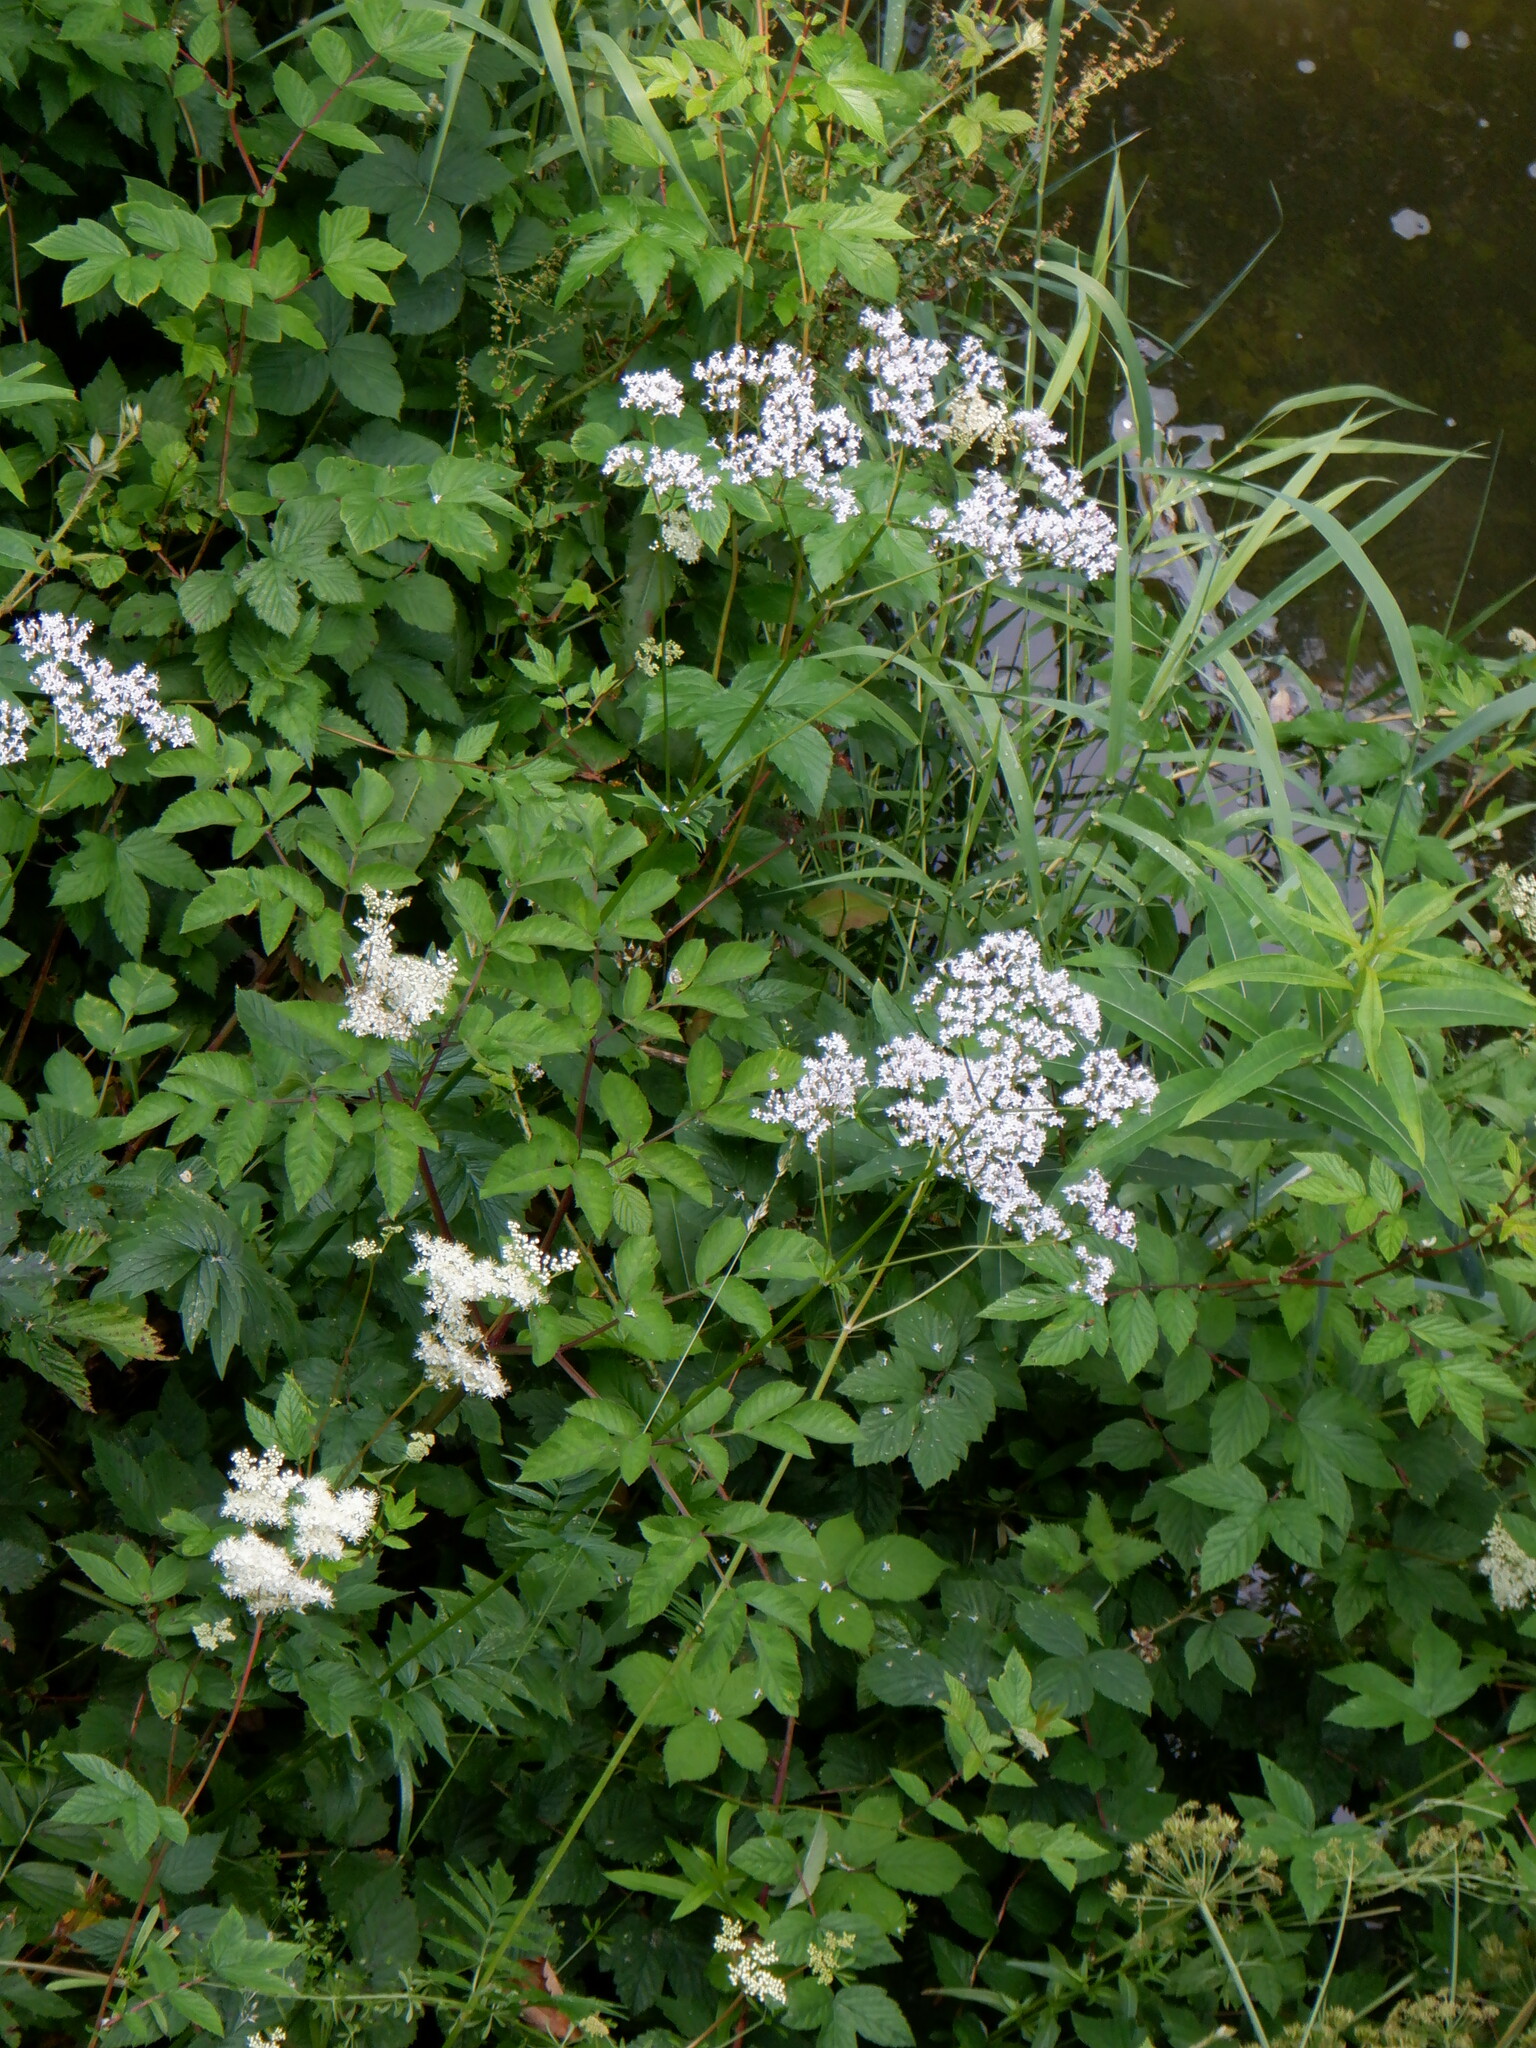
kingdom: Plantae
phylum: Tracheophyta
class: Magnoliopsida
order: Dipsacales
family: Caprifoliaceae
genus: Valeriana
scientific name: Valeriana officinalis
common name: Common valerian
